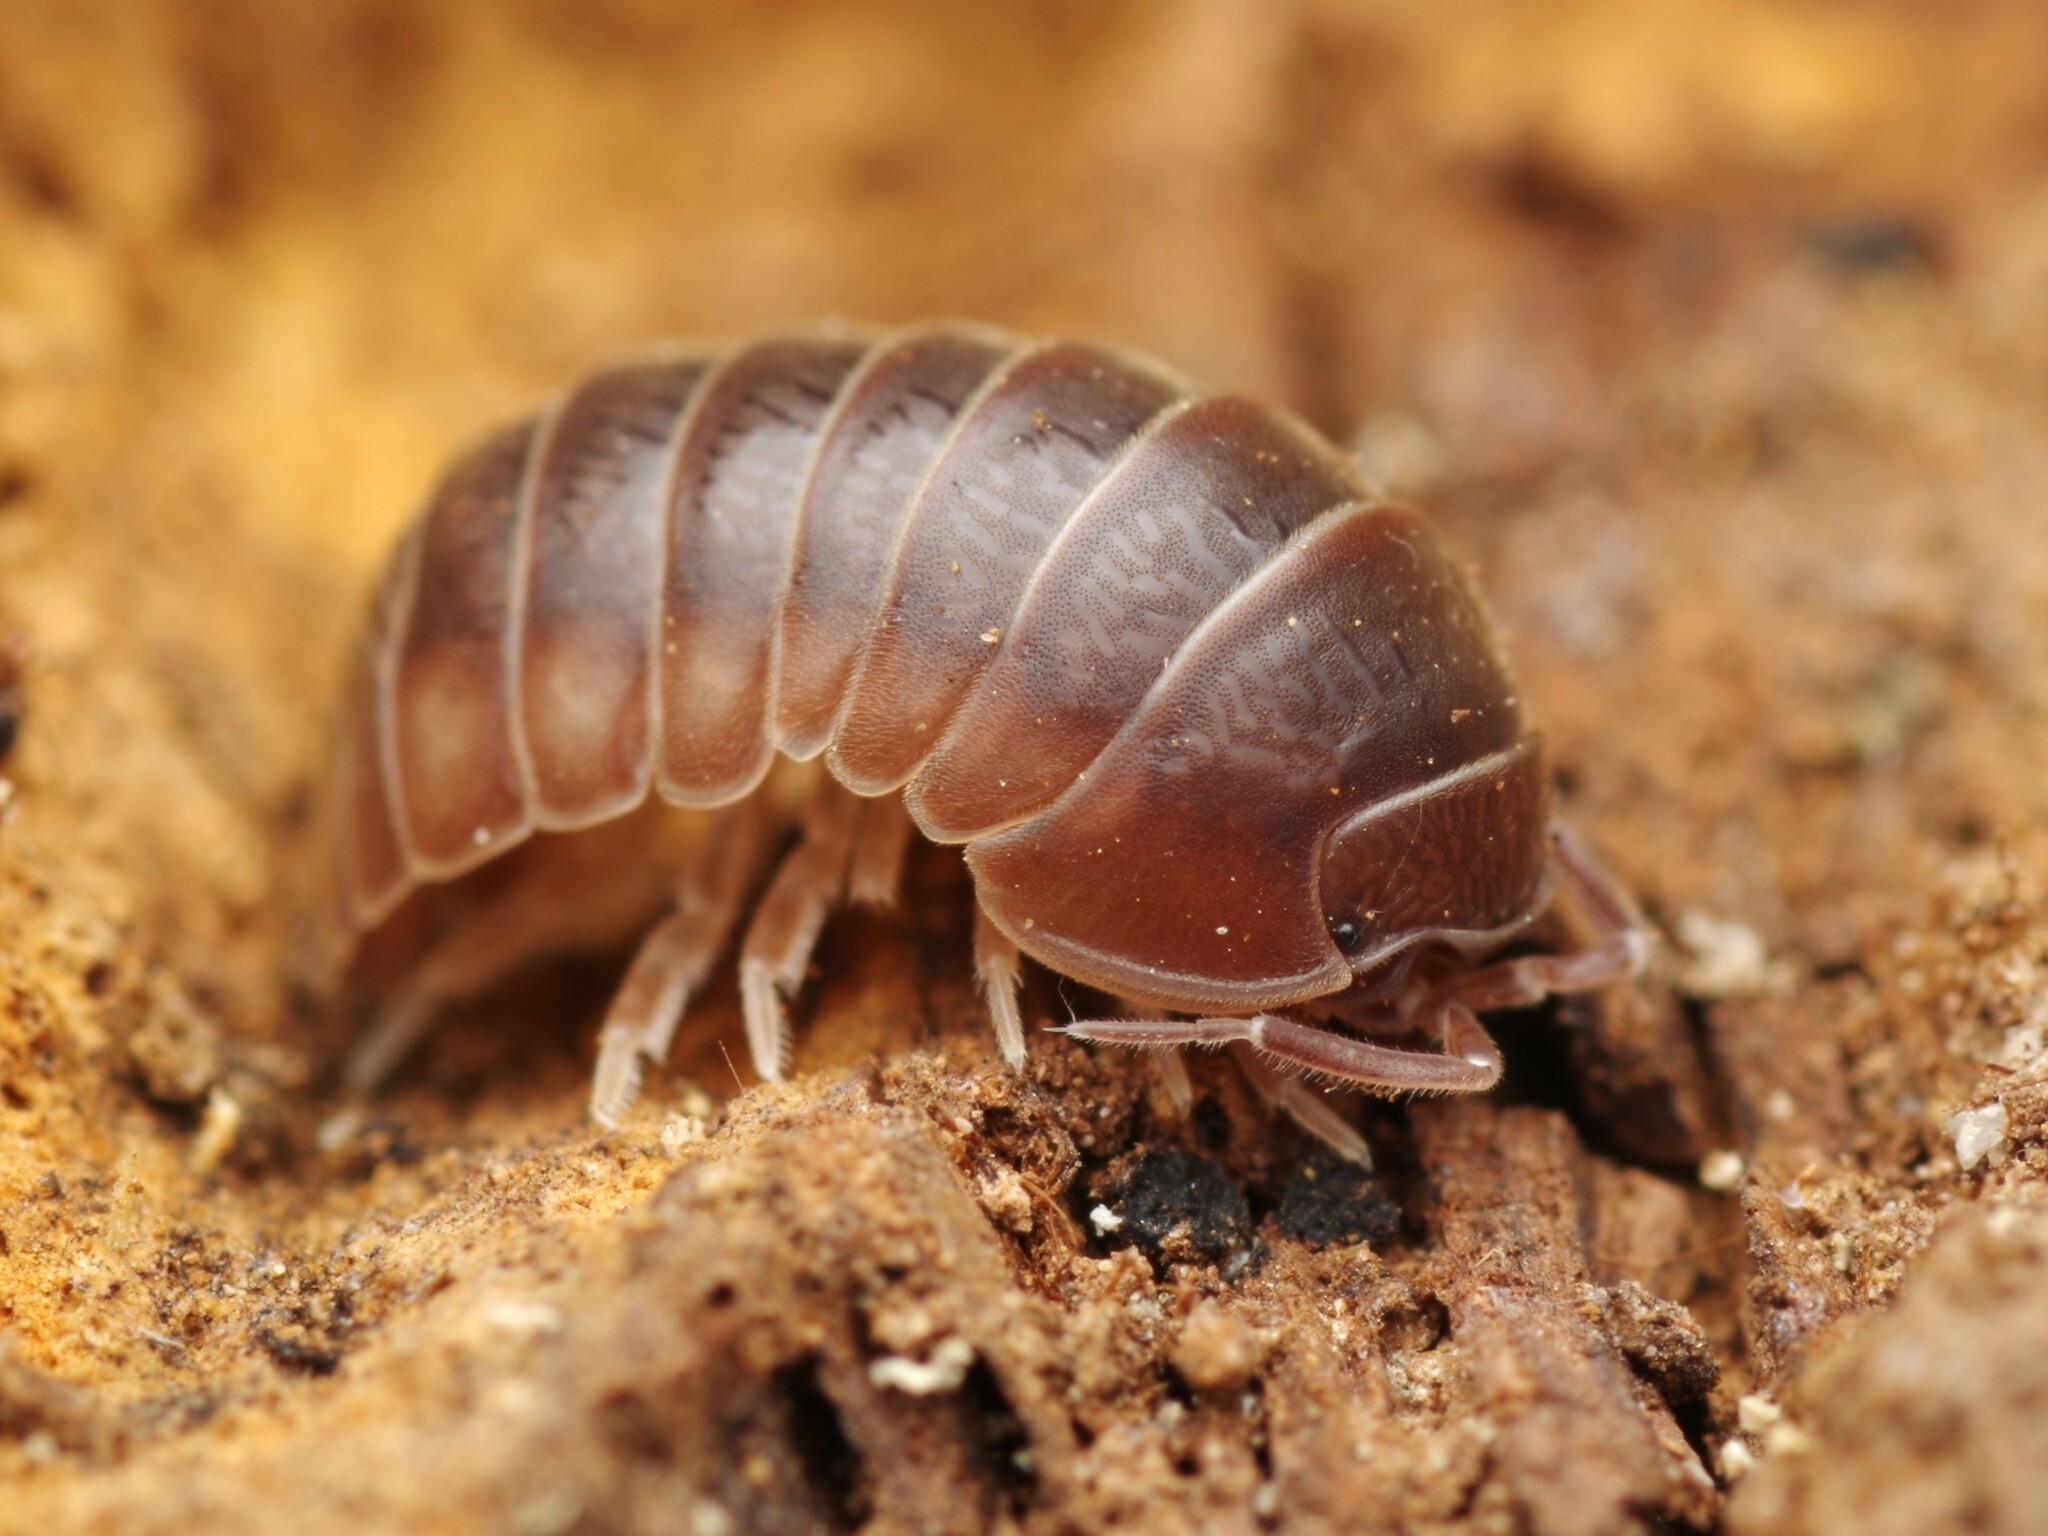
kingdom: Animalia
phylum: Arthropoda
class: Malacostraca
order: Isopoda
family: Armadillidiidae
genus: Eluma
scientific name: Eluma caelata
